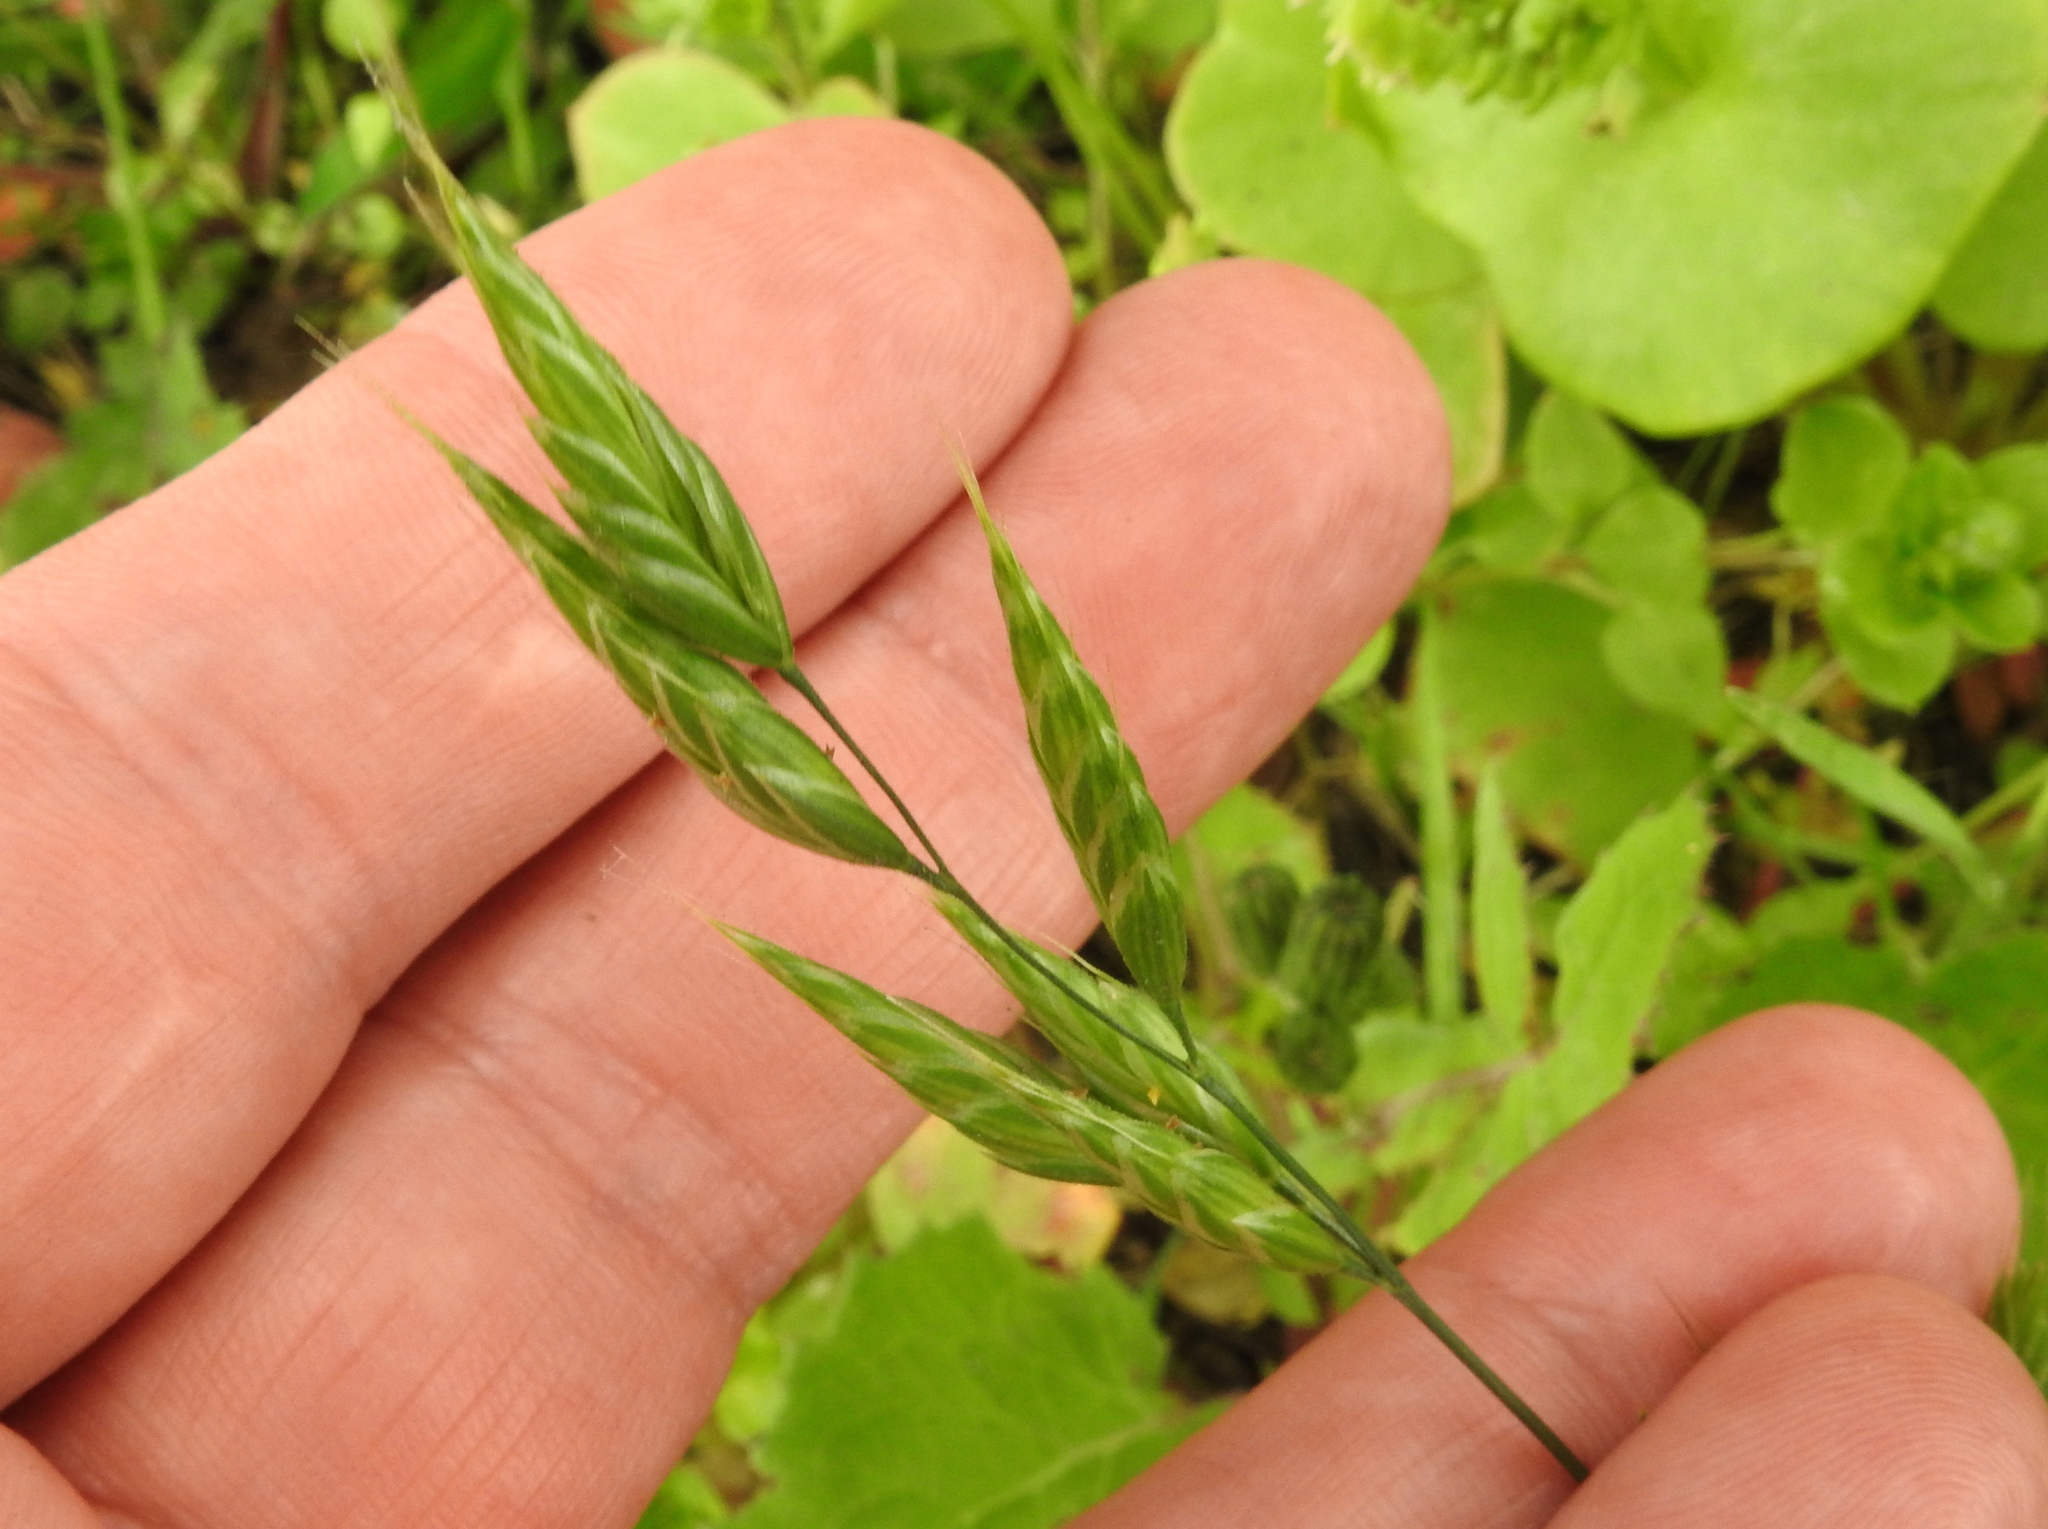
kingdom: Plantae
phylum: Tracheophyta
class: Liliopsida
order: Poales
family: Poaceae
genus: Bromus
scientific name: Bromus hordeaceus
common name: Soft brome
